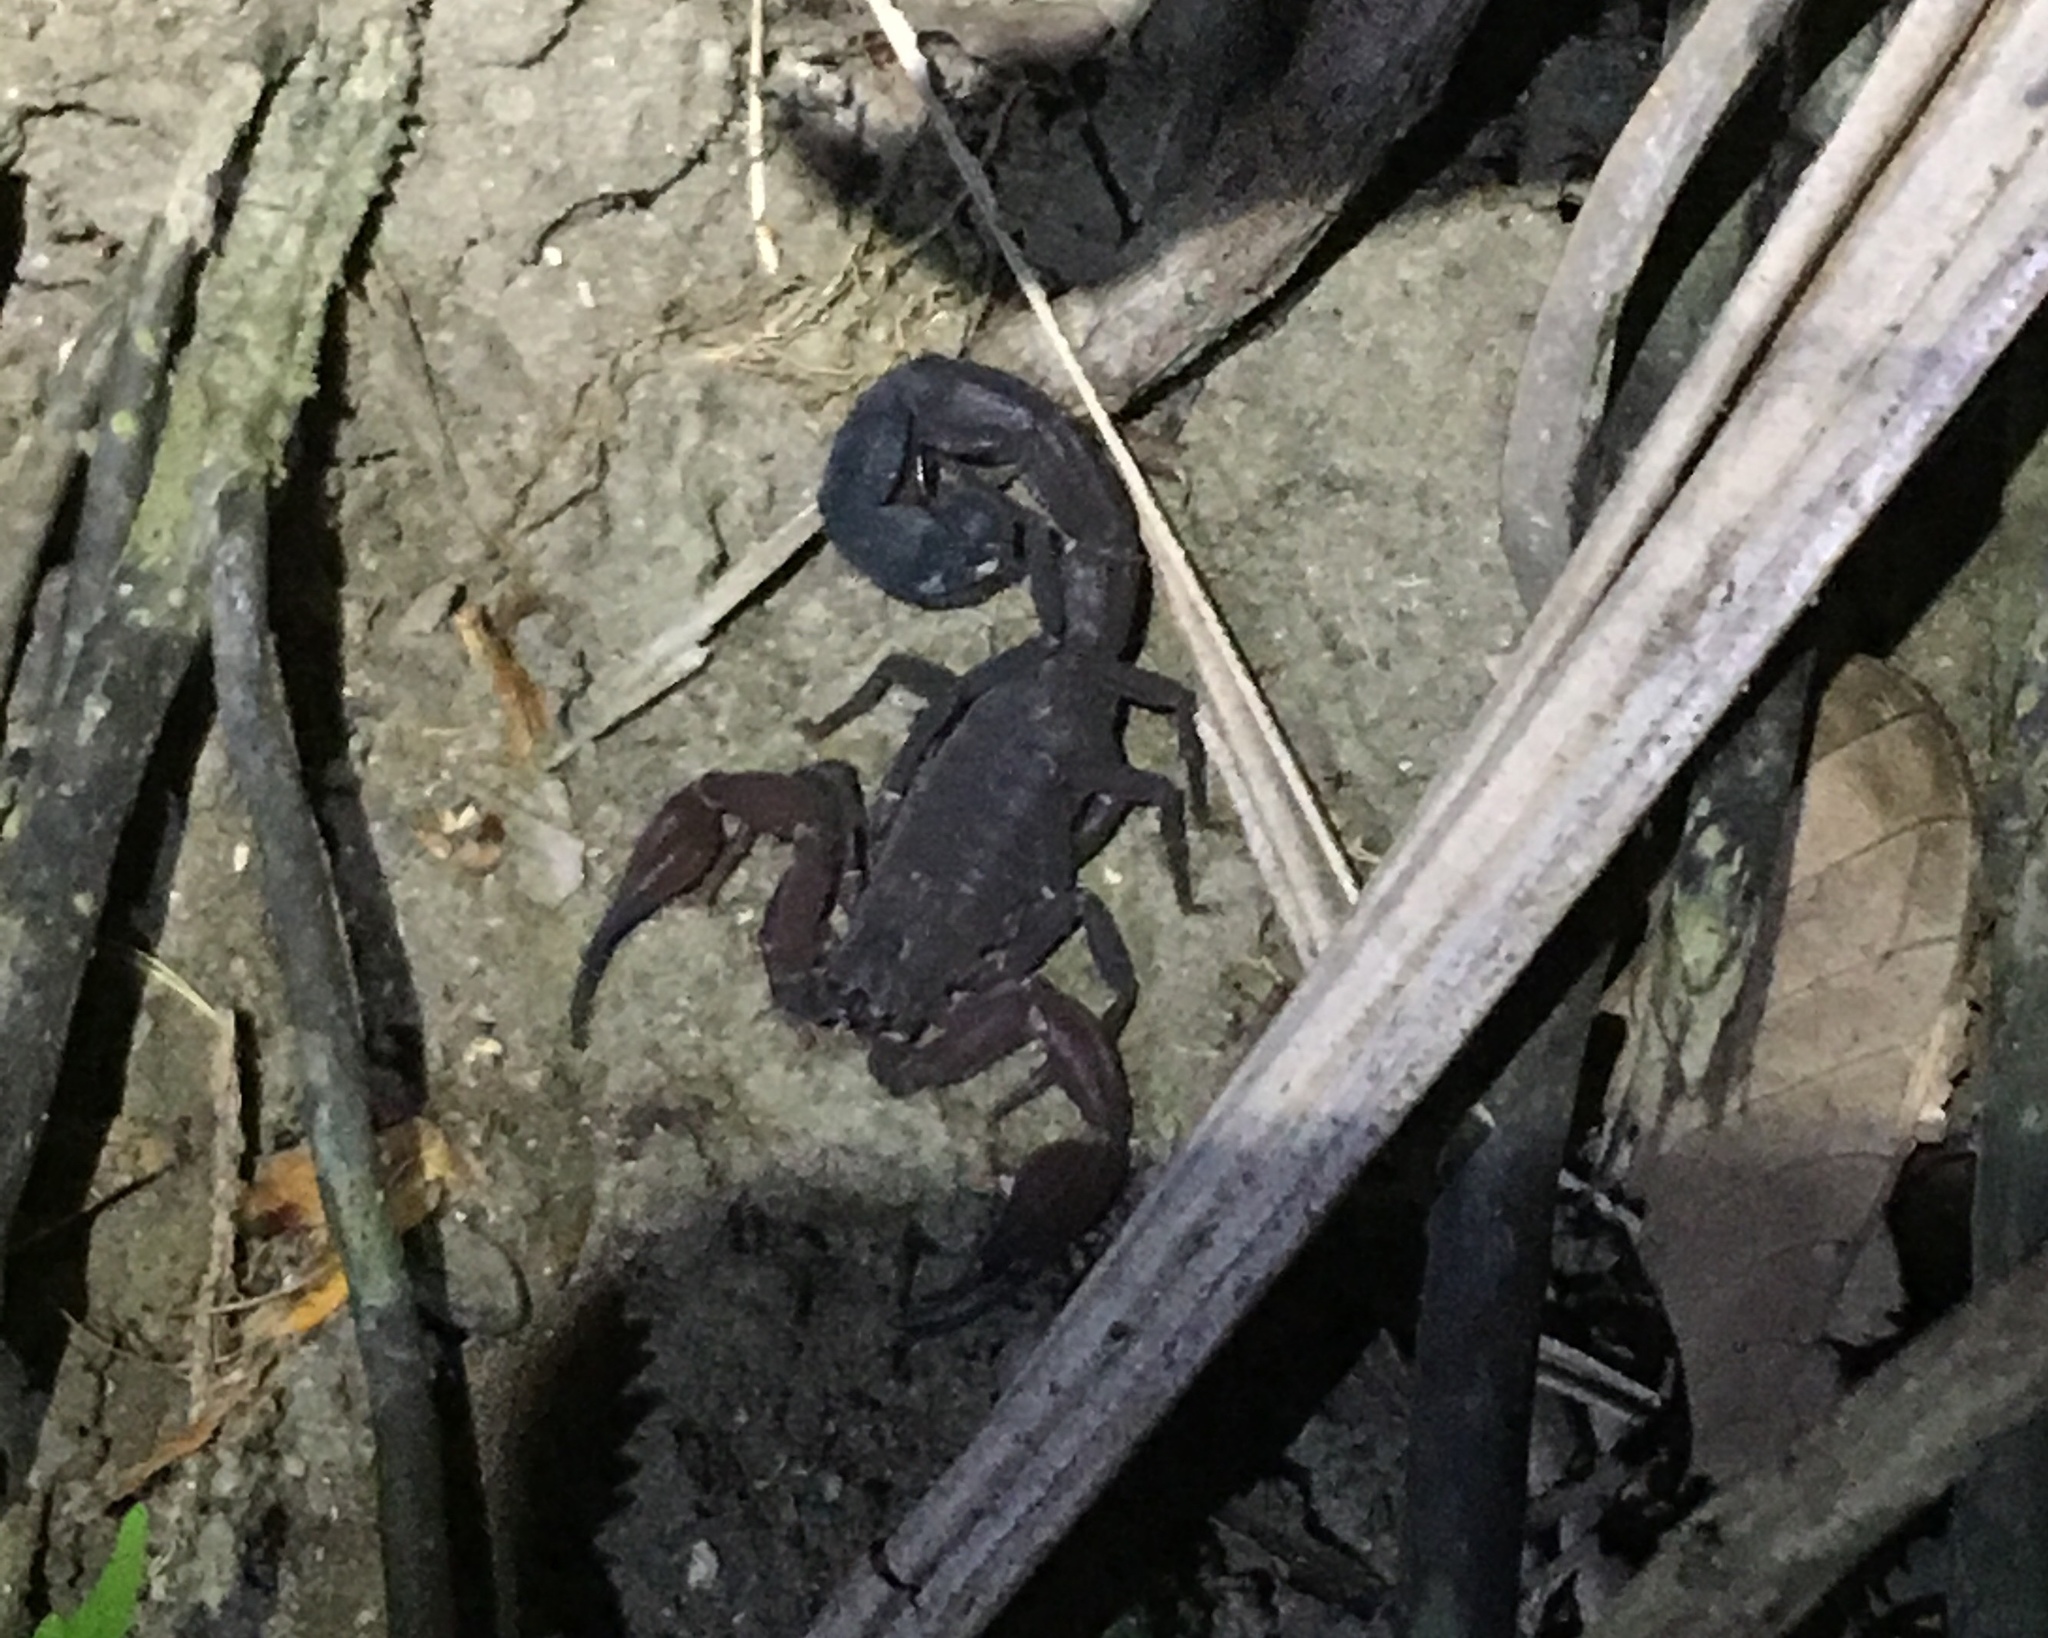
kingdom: Animalia
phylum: Arthropoda
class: Arachnida
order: Scorpiones
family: Buthidae
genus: Tityus
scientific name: Tityus pachyurus
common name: Scorpions
